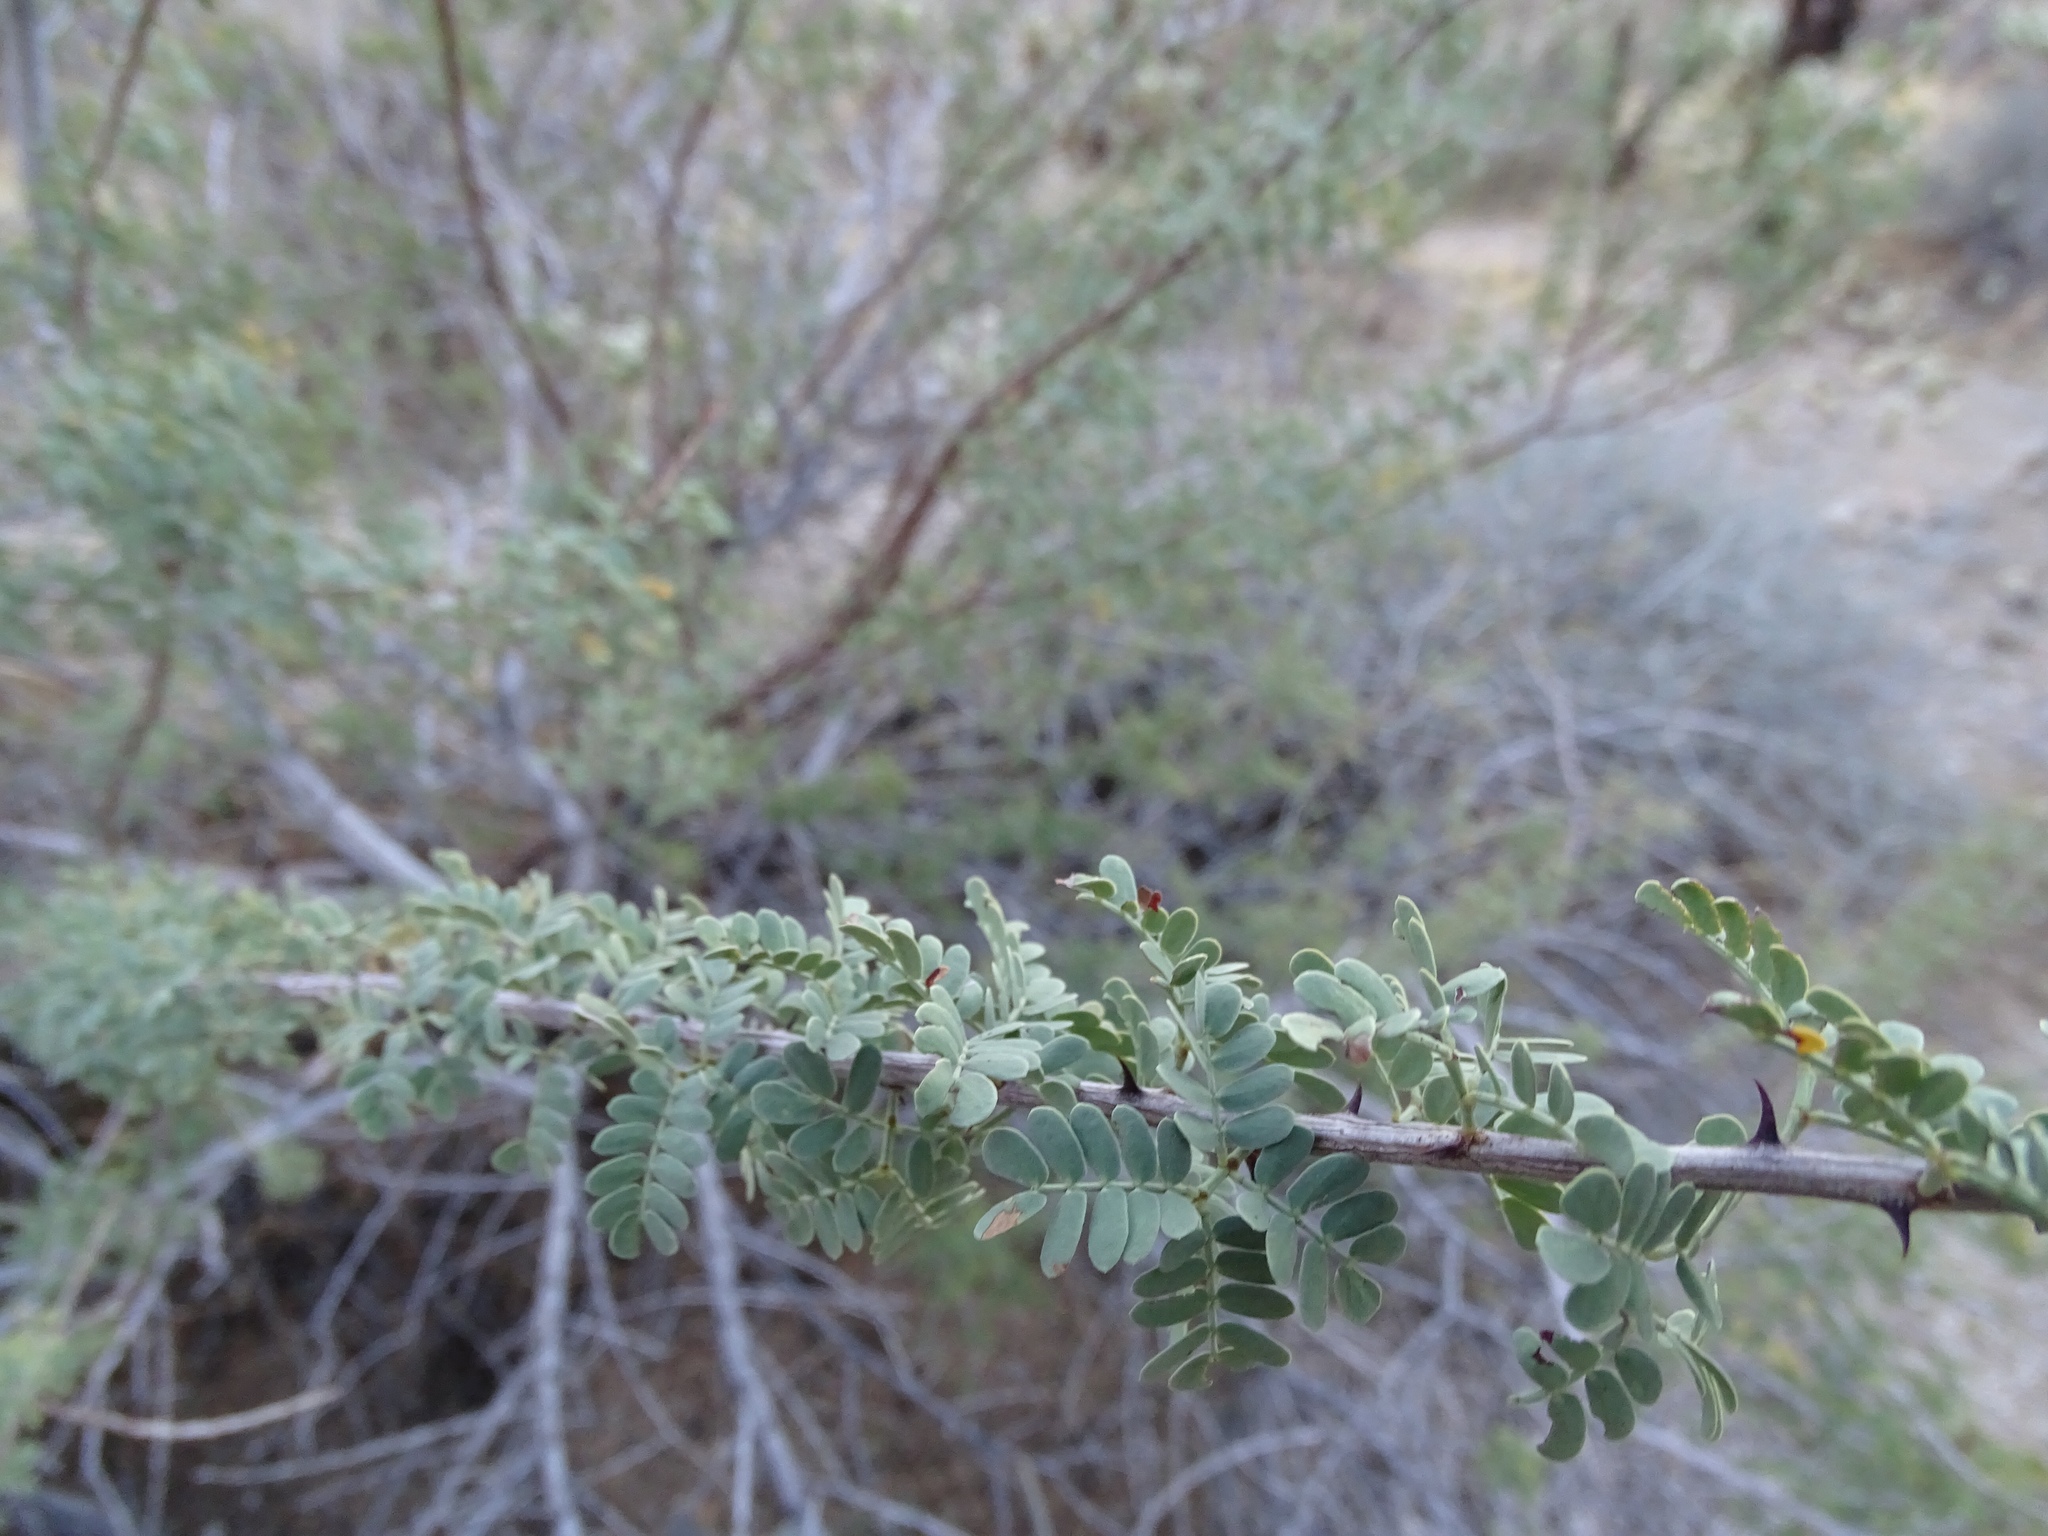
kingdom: Plantae
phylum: Tracheophyta
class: Magnoliopsida
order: Fabales
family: Fabaceae
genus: Senegalia
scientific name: Senegalia greggii
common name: Texas-mimosa
